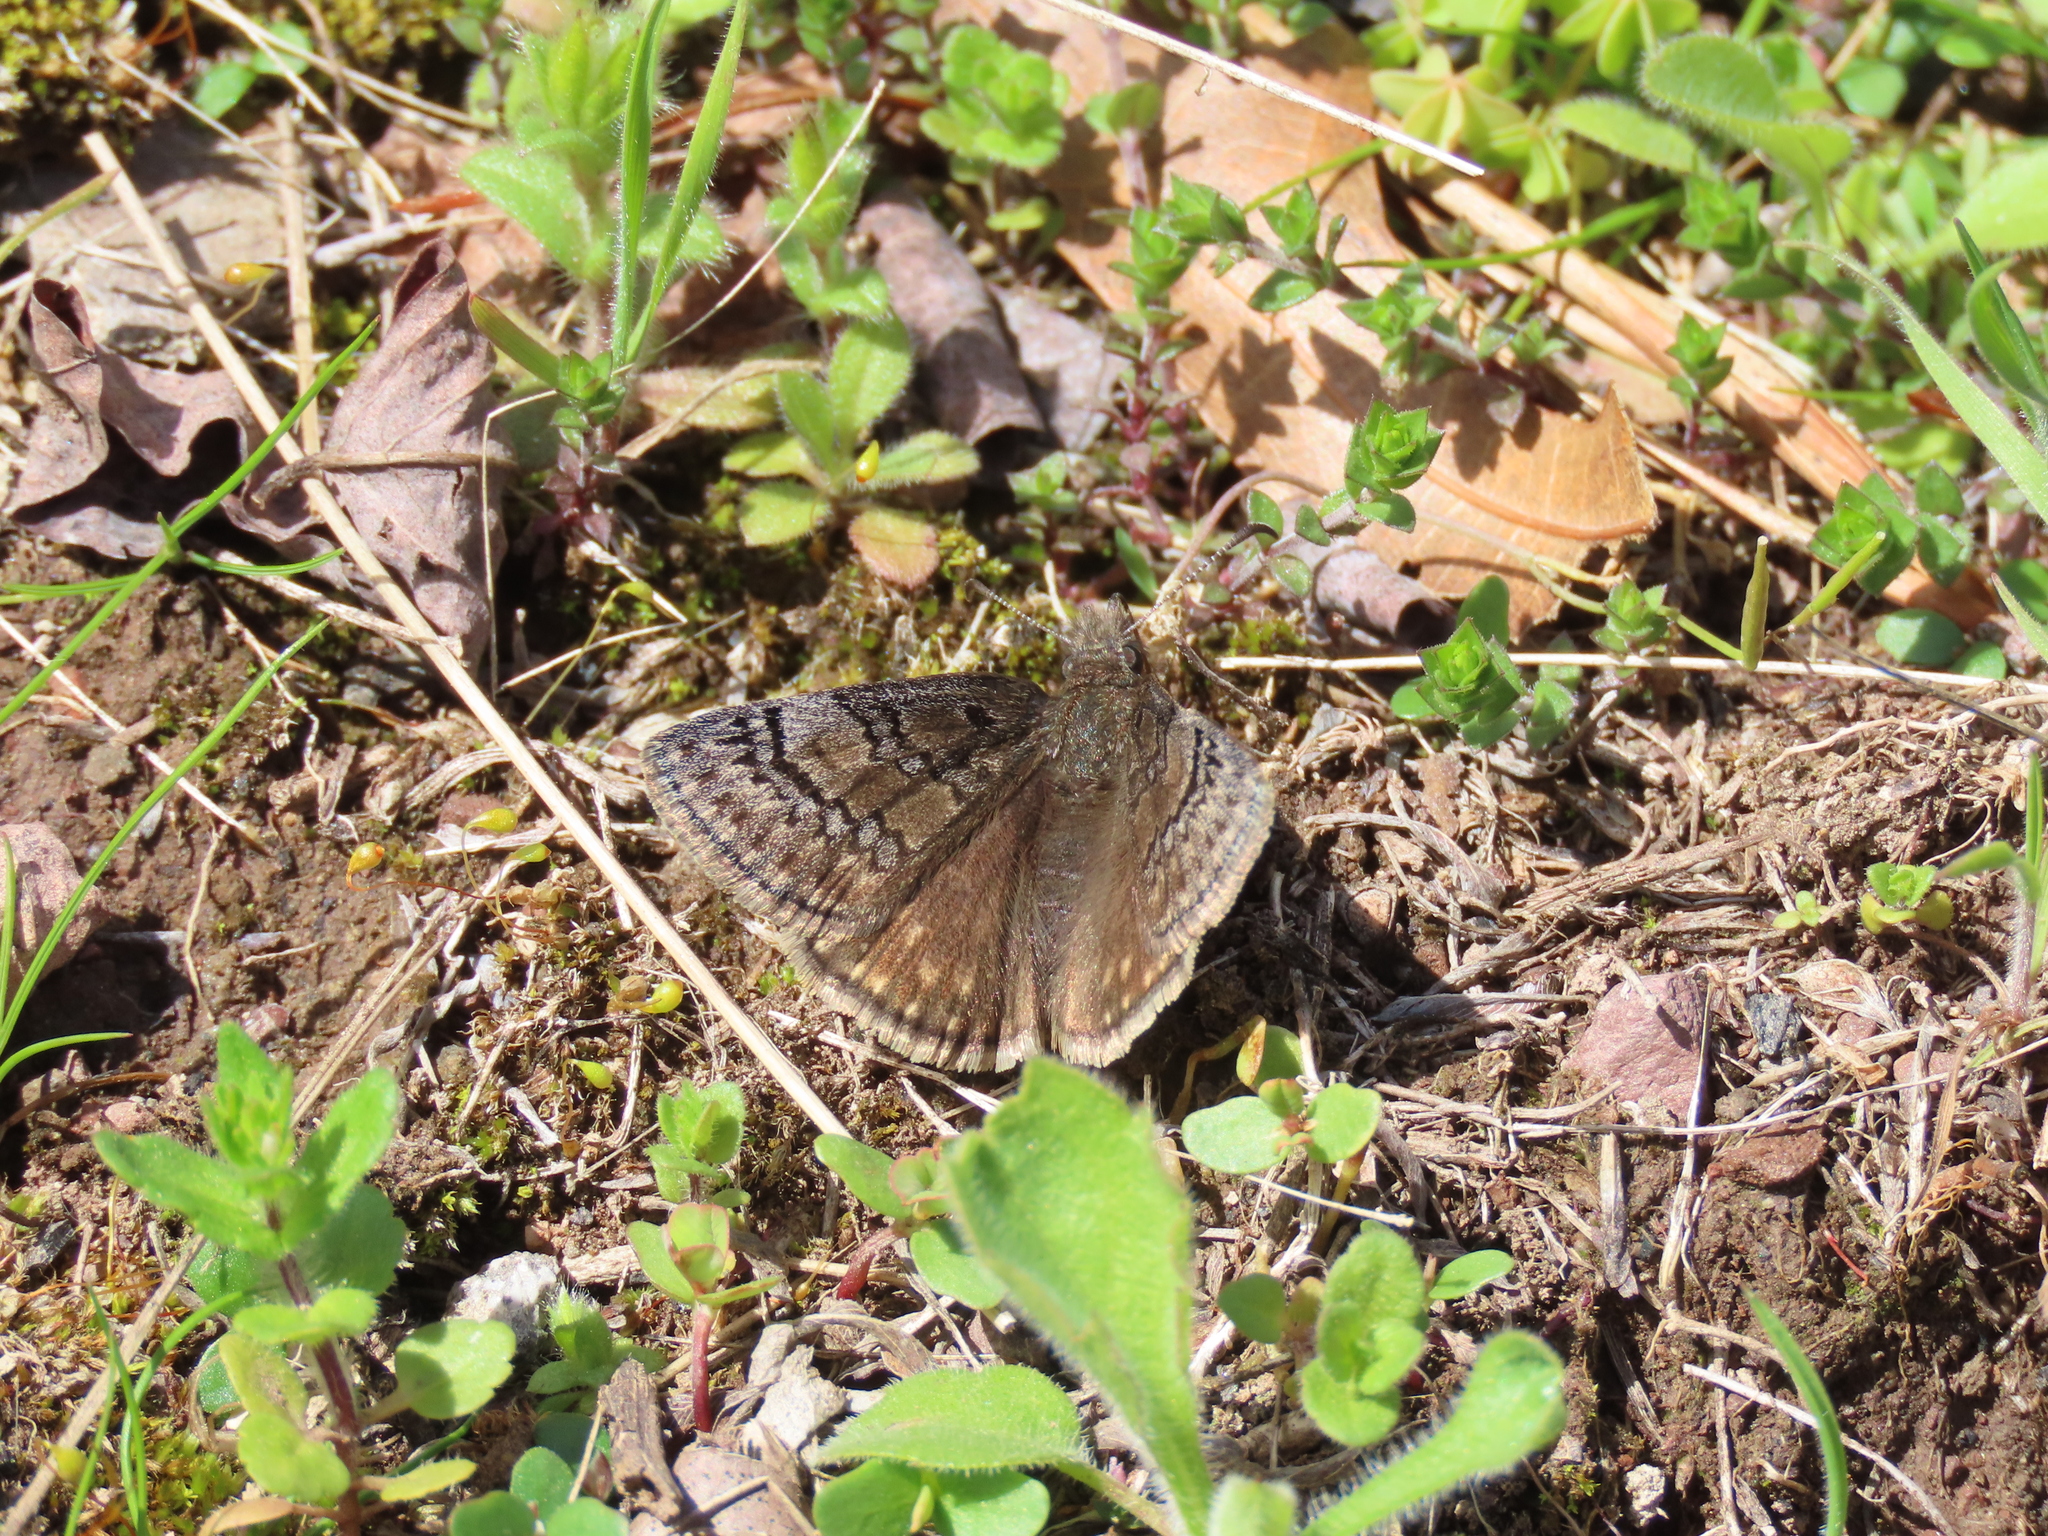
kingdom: Animalia
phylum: Arthropoda
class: Insecta
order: Lepidoptera
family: Hesperiidae
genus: Erynnis
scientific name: Erynnis brizo
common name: Sleepy duskywing
